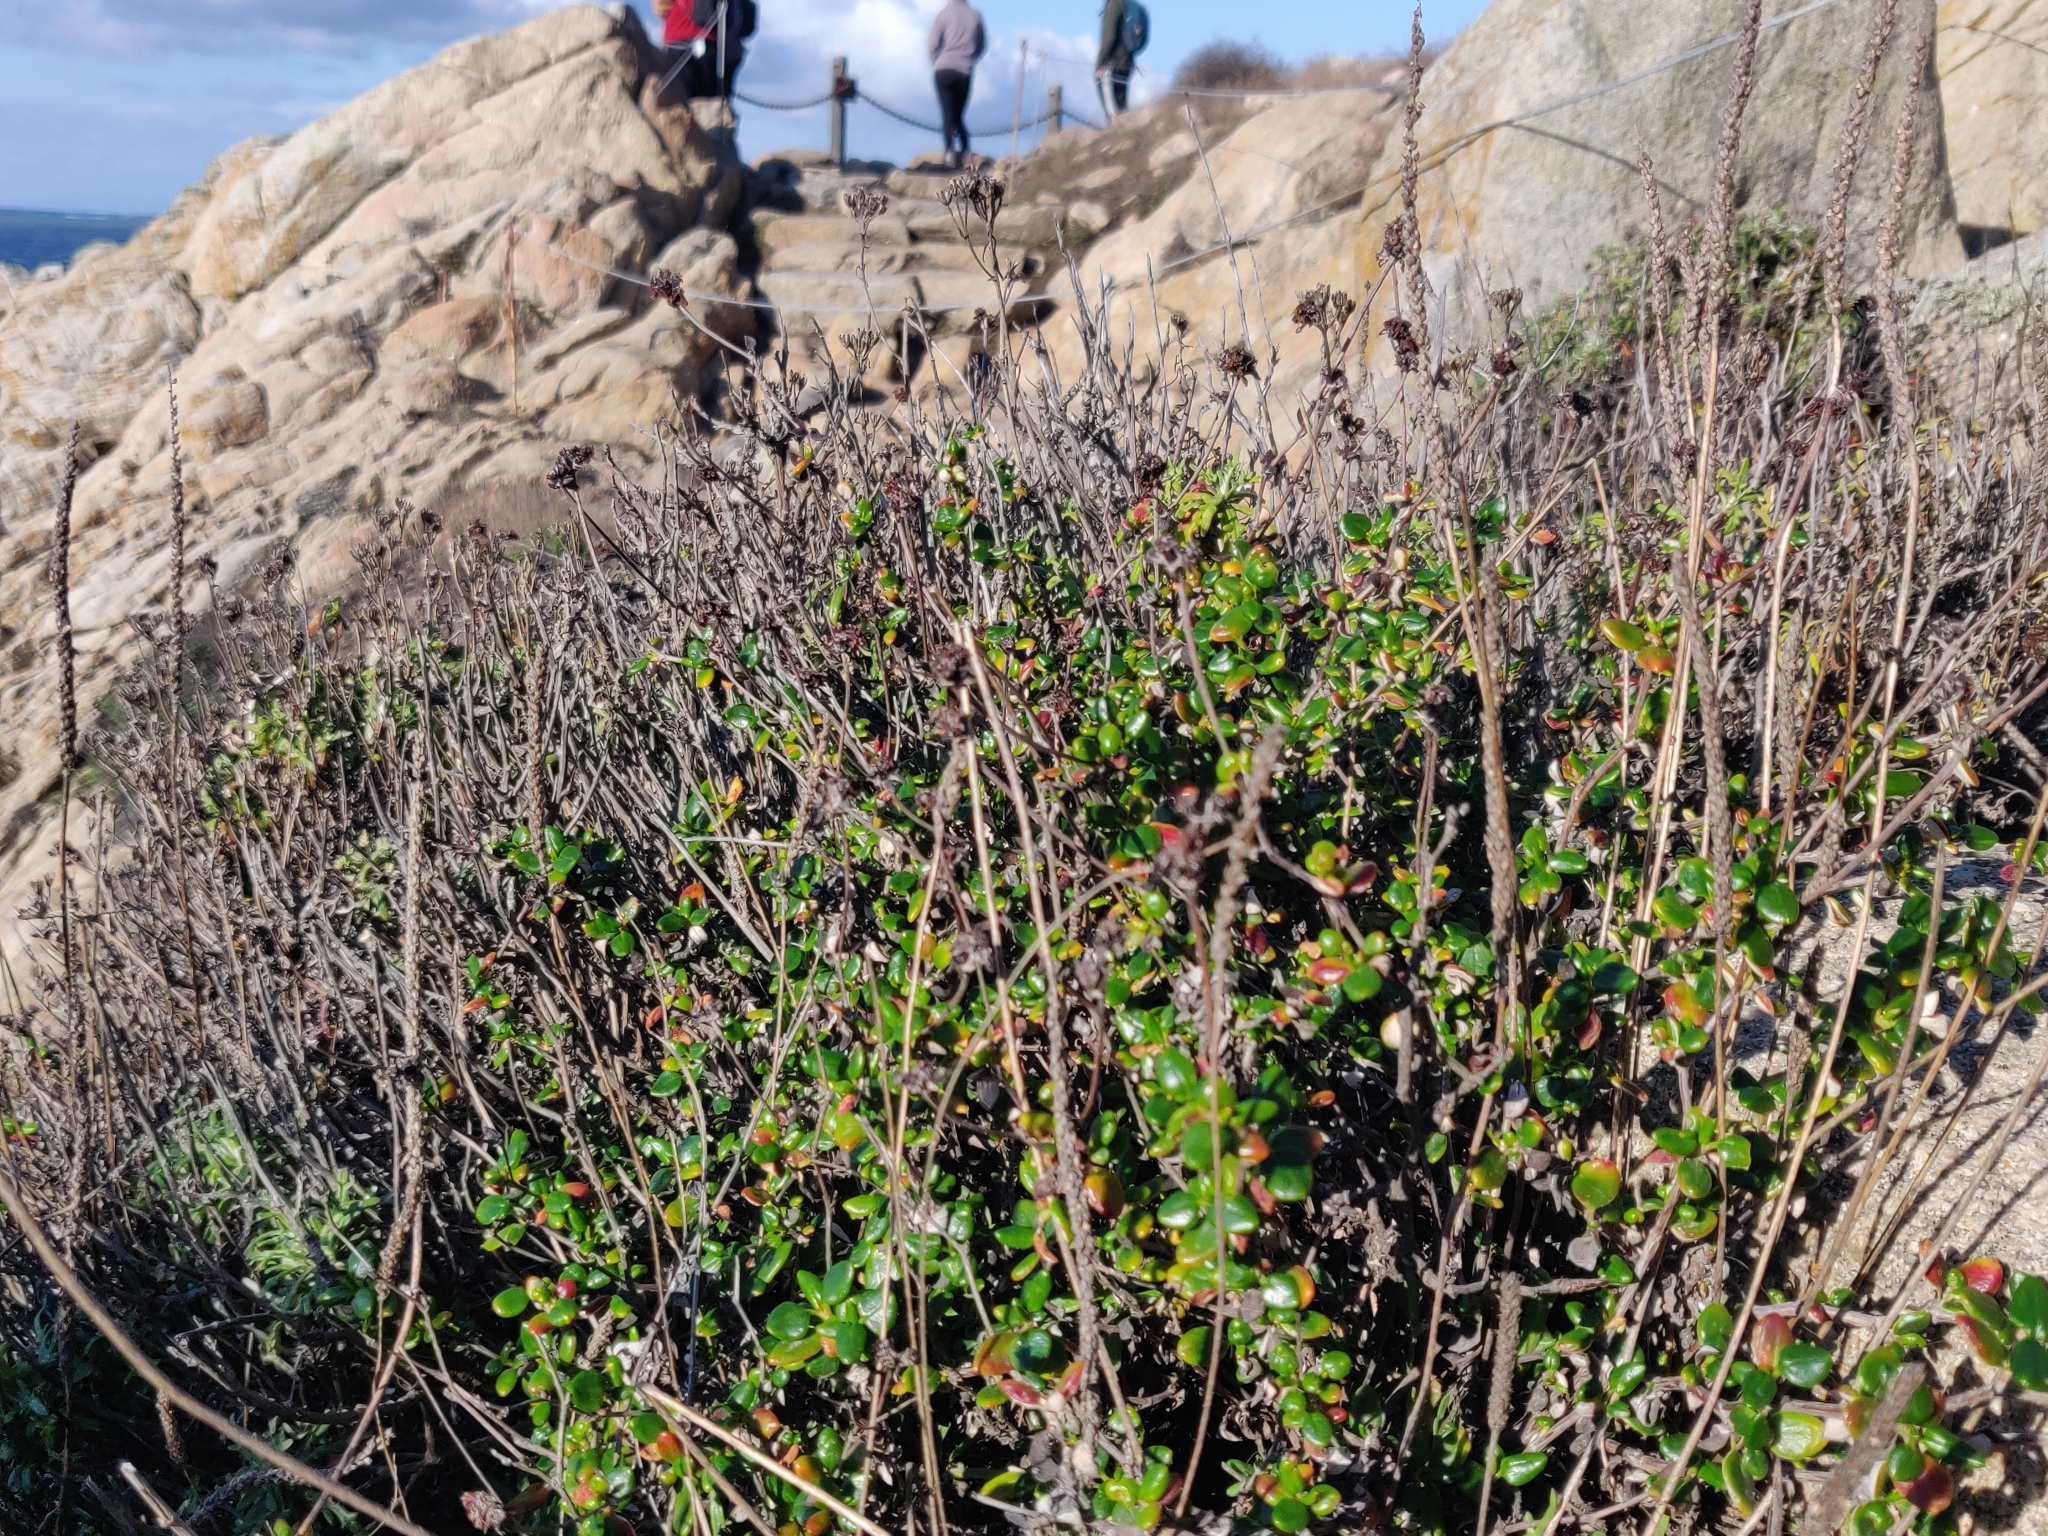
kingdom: Plantae
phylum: Tracheophyta
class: Magnoliopsida
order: Caryophyllales
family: Polygonaceae
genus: Eriogonum
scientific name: Eriogonum parvifolium
